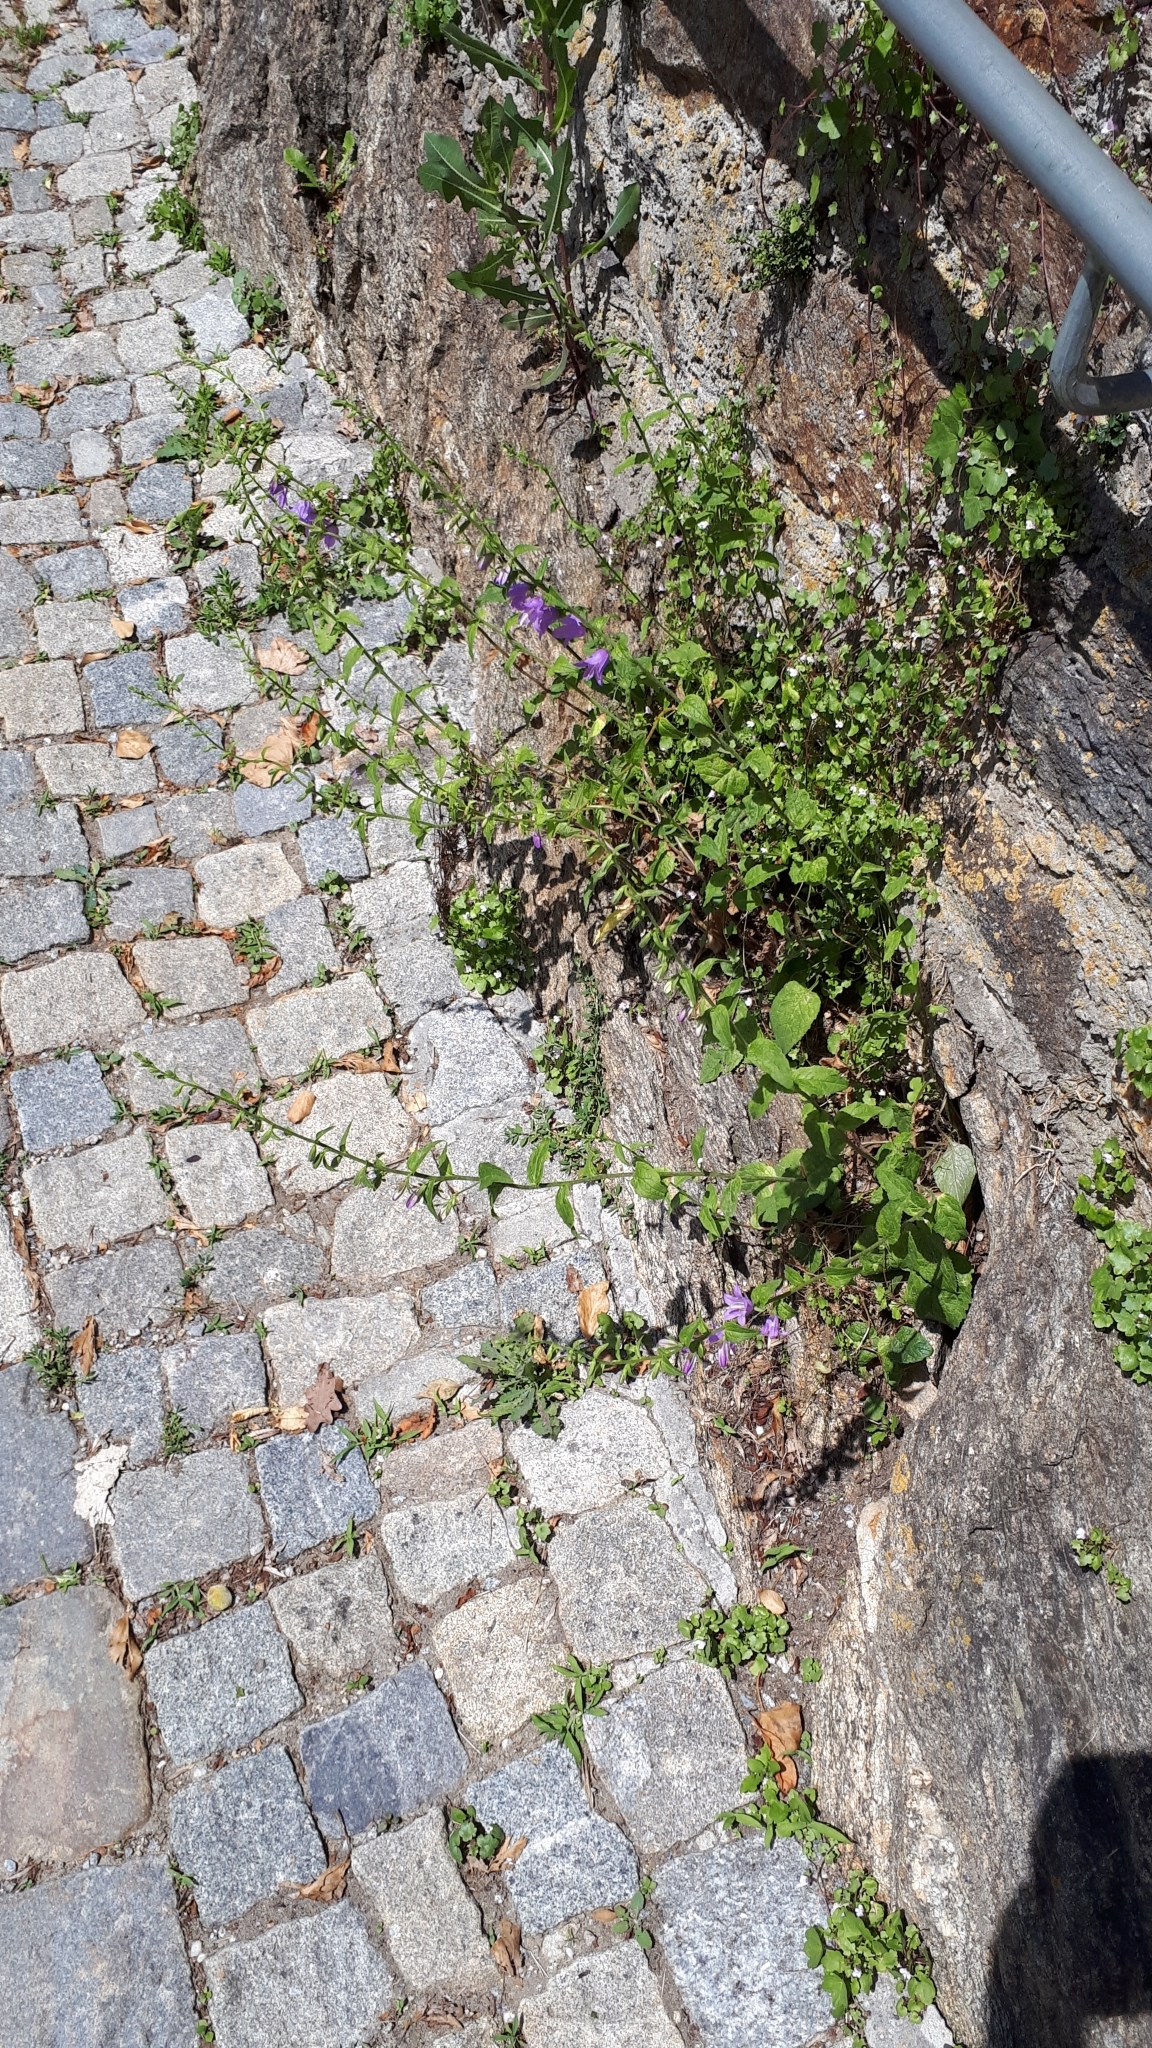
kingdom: Plantae
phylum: Tracheophyta
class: Magnoliopsida
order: Asterales
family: Campanulaceae
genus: Campanula
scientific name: Campanula rapunculoides
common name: Creeping bellflower
